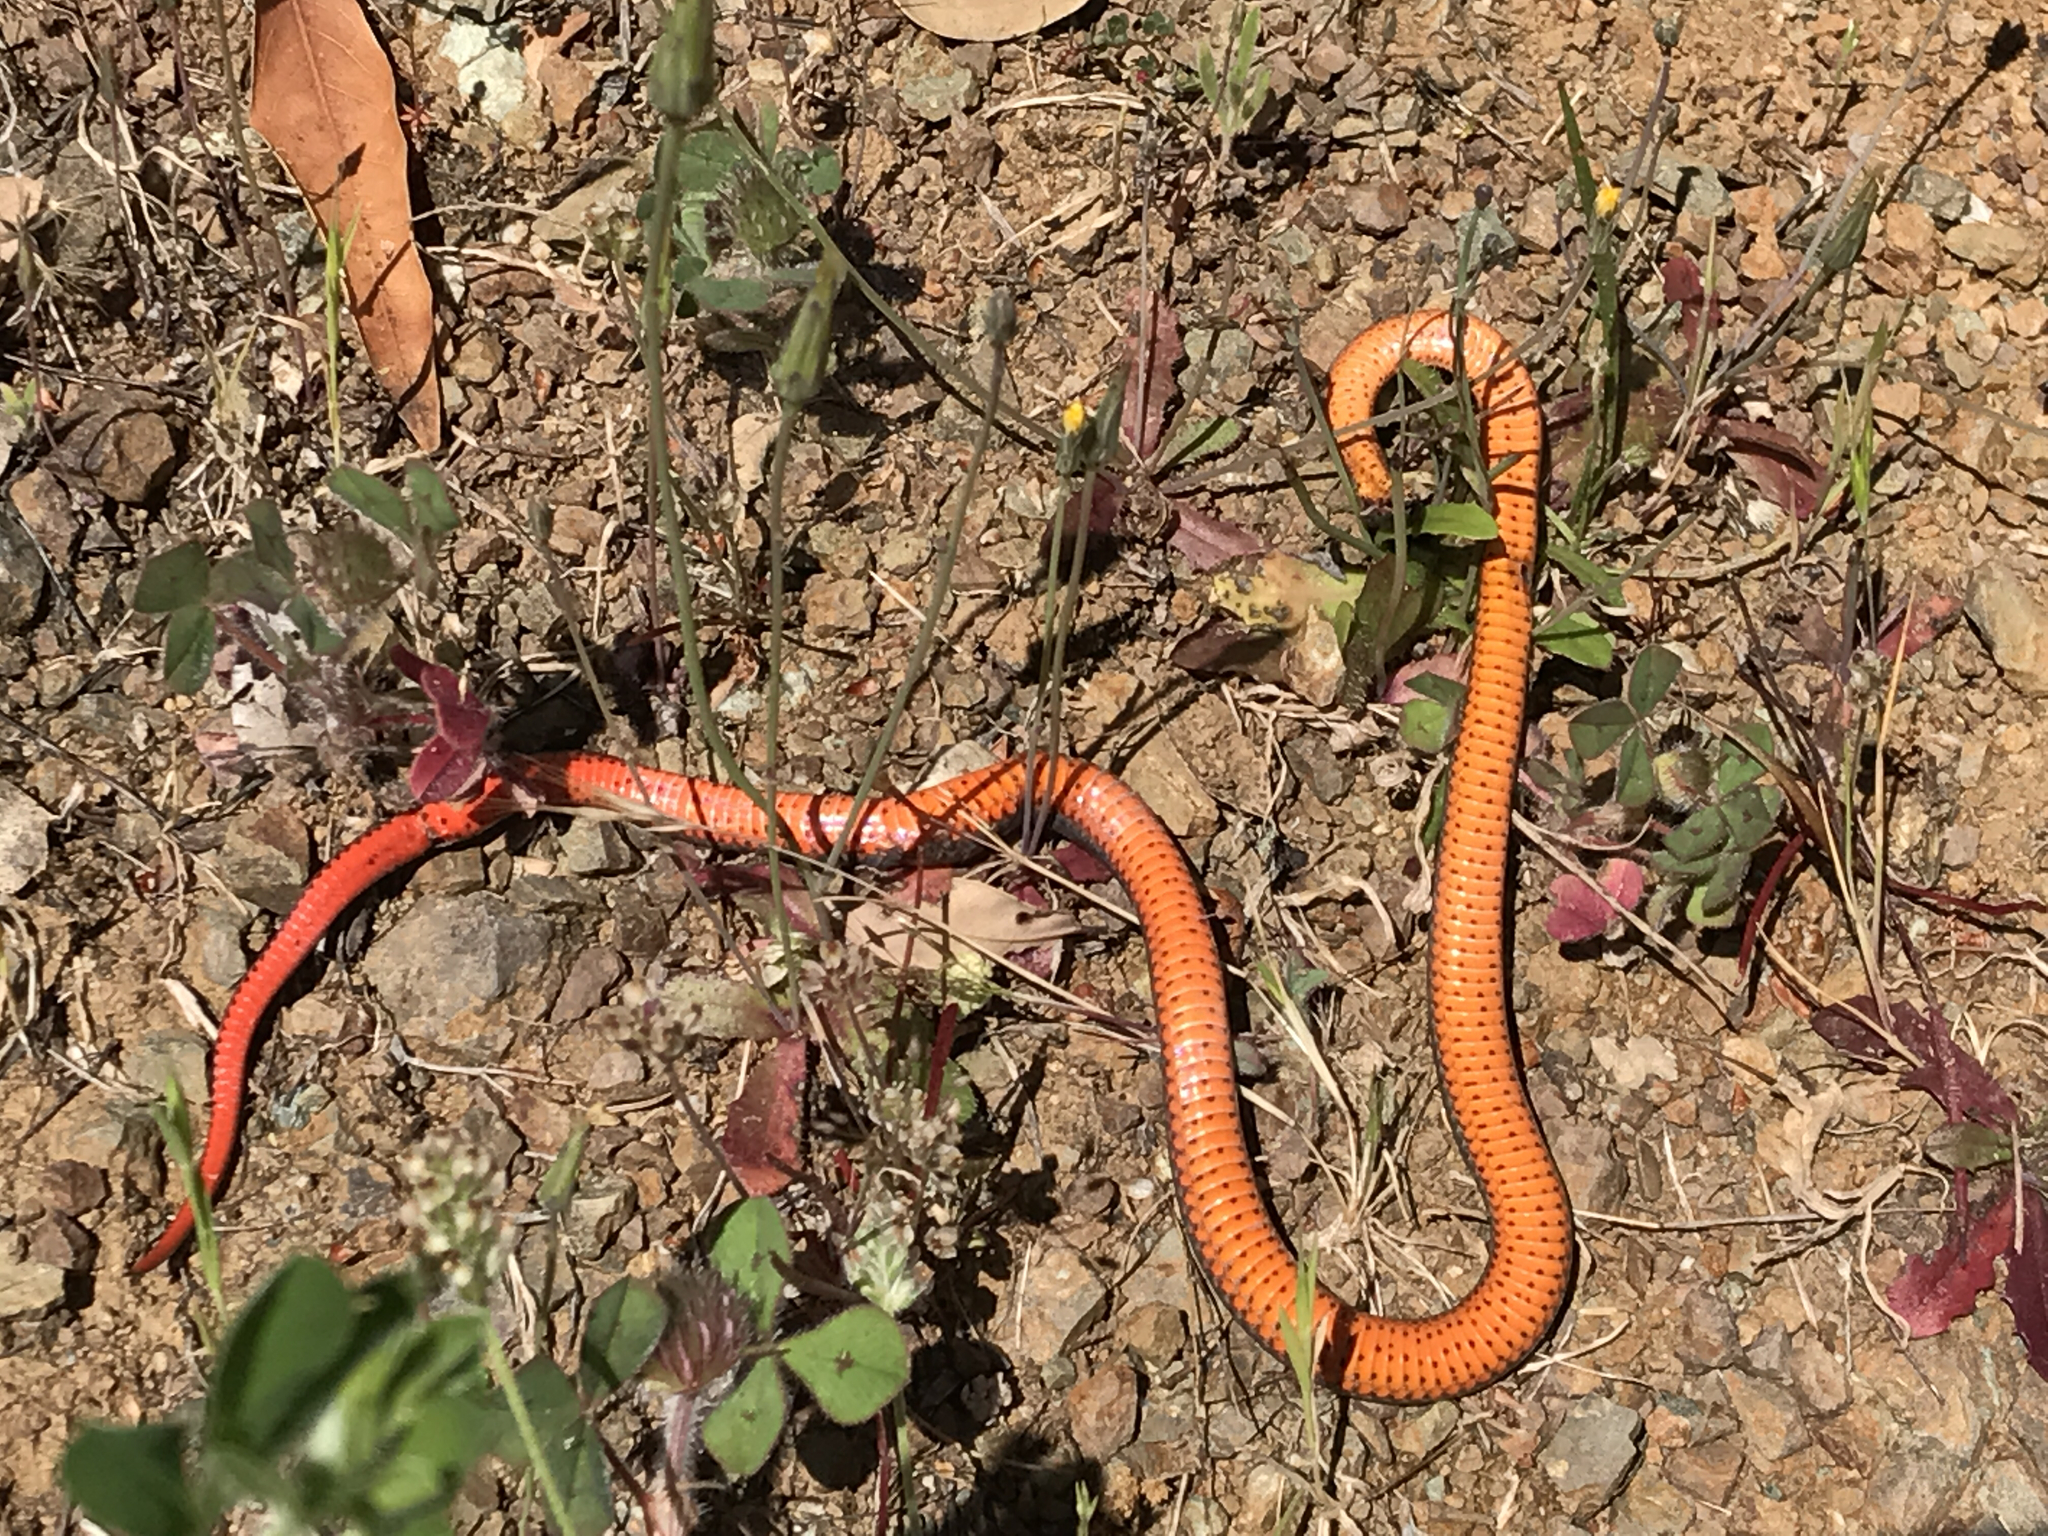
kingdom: Animalia
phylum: Chordata
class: Squamata
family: Colubridae
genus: Diadophis
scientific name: Diadophis punctatus
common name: Ringneck snake
